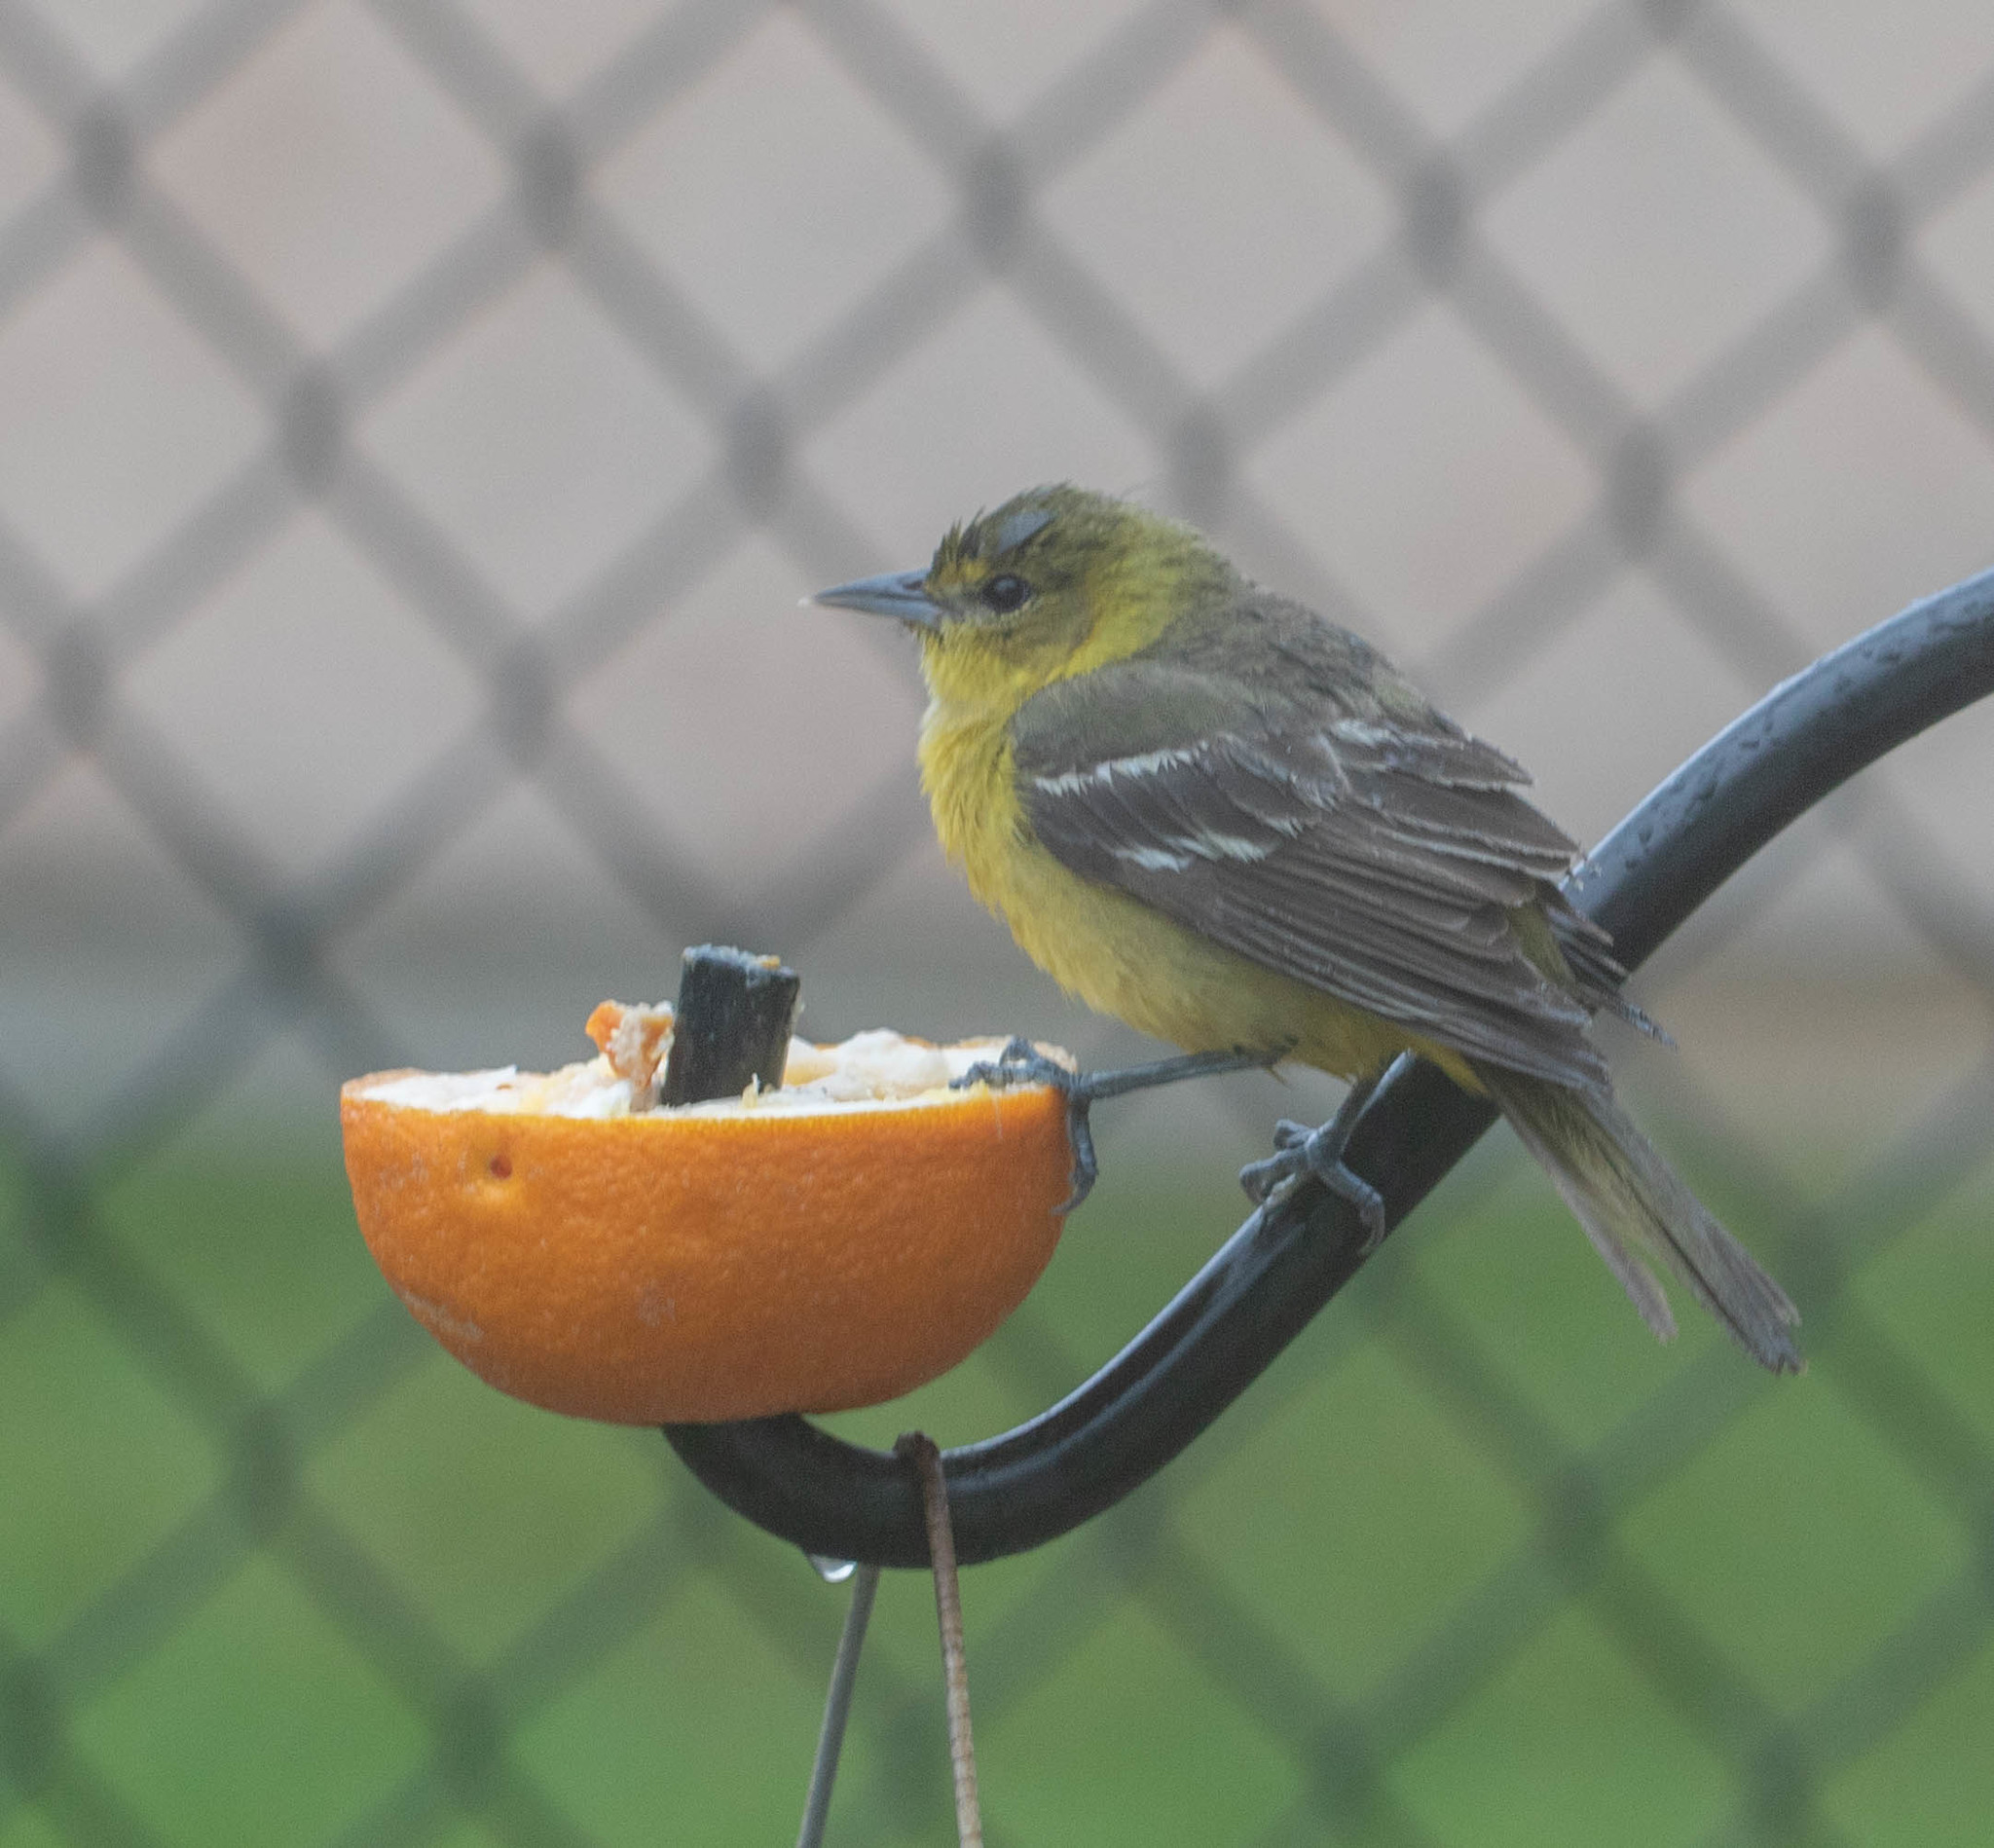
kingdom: Animalia
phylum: Chordata
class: Aves
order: Passeriformes
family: Icteridae
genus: Icterus
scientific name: Icterus spurius
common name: Orchard oriole
